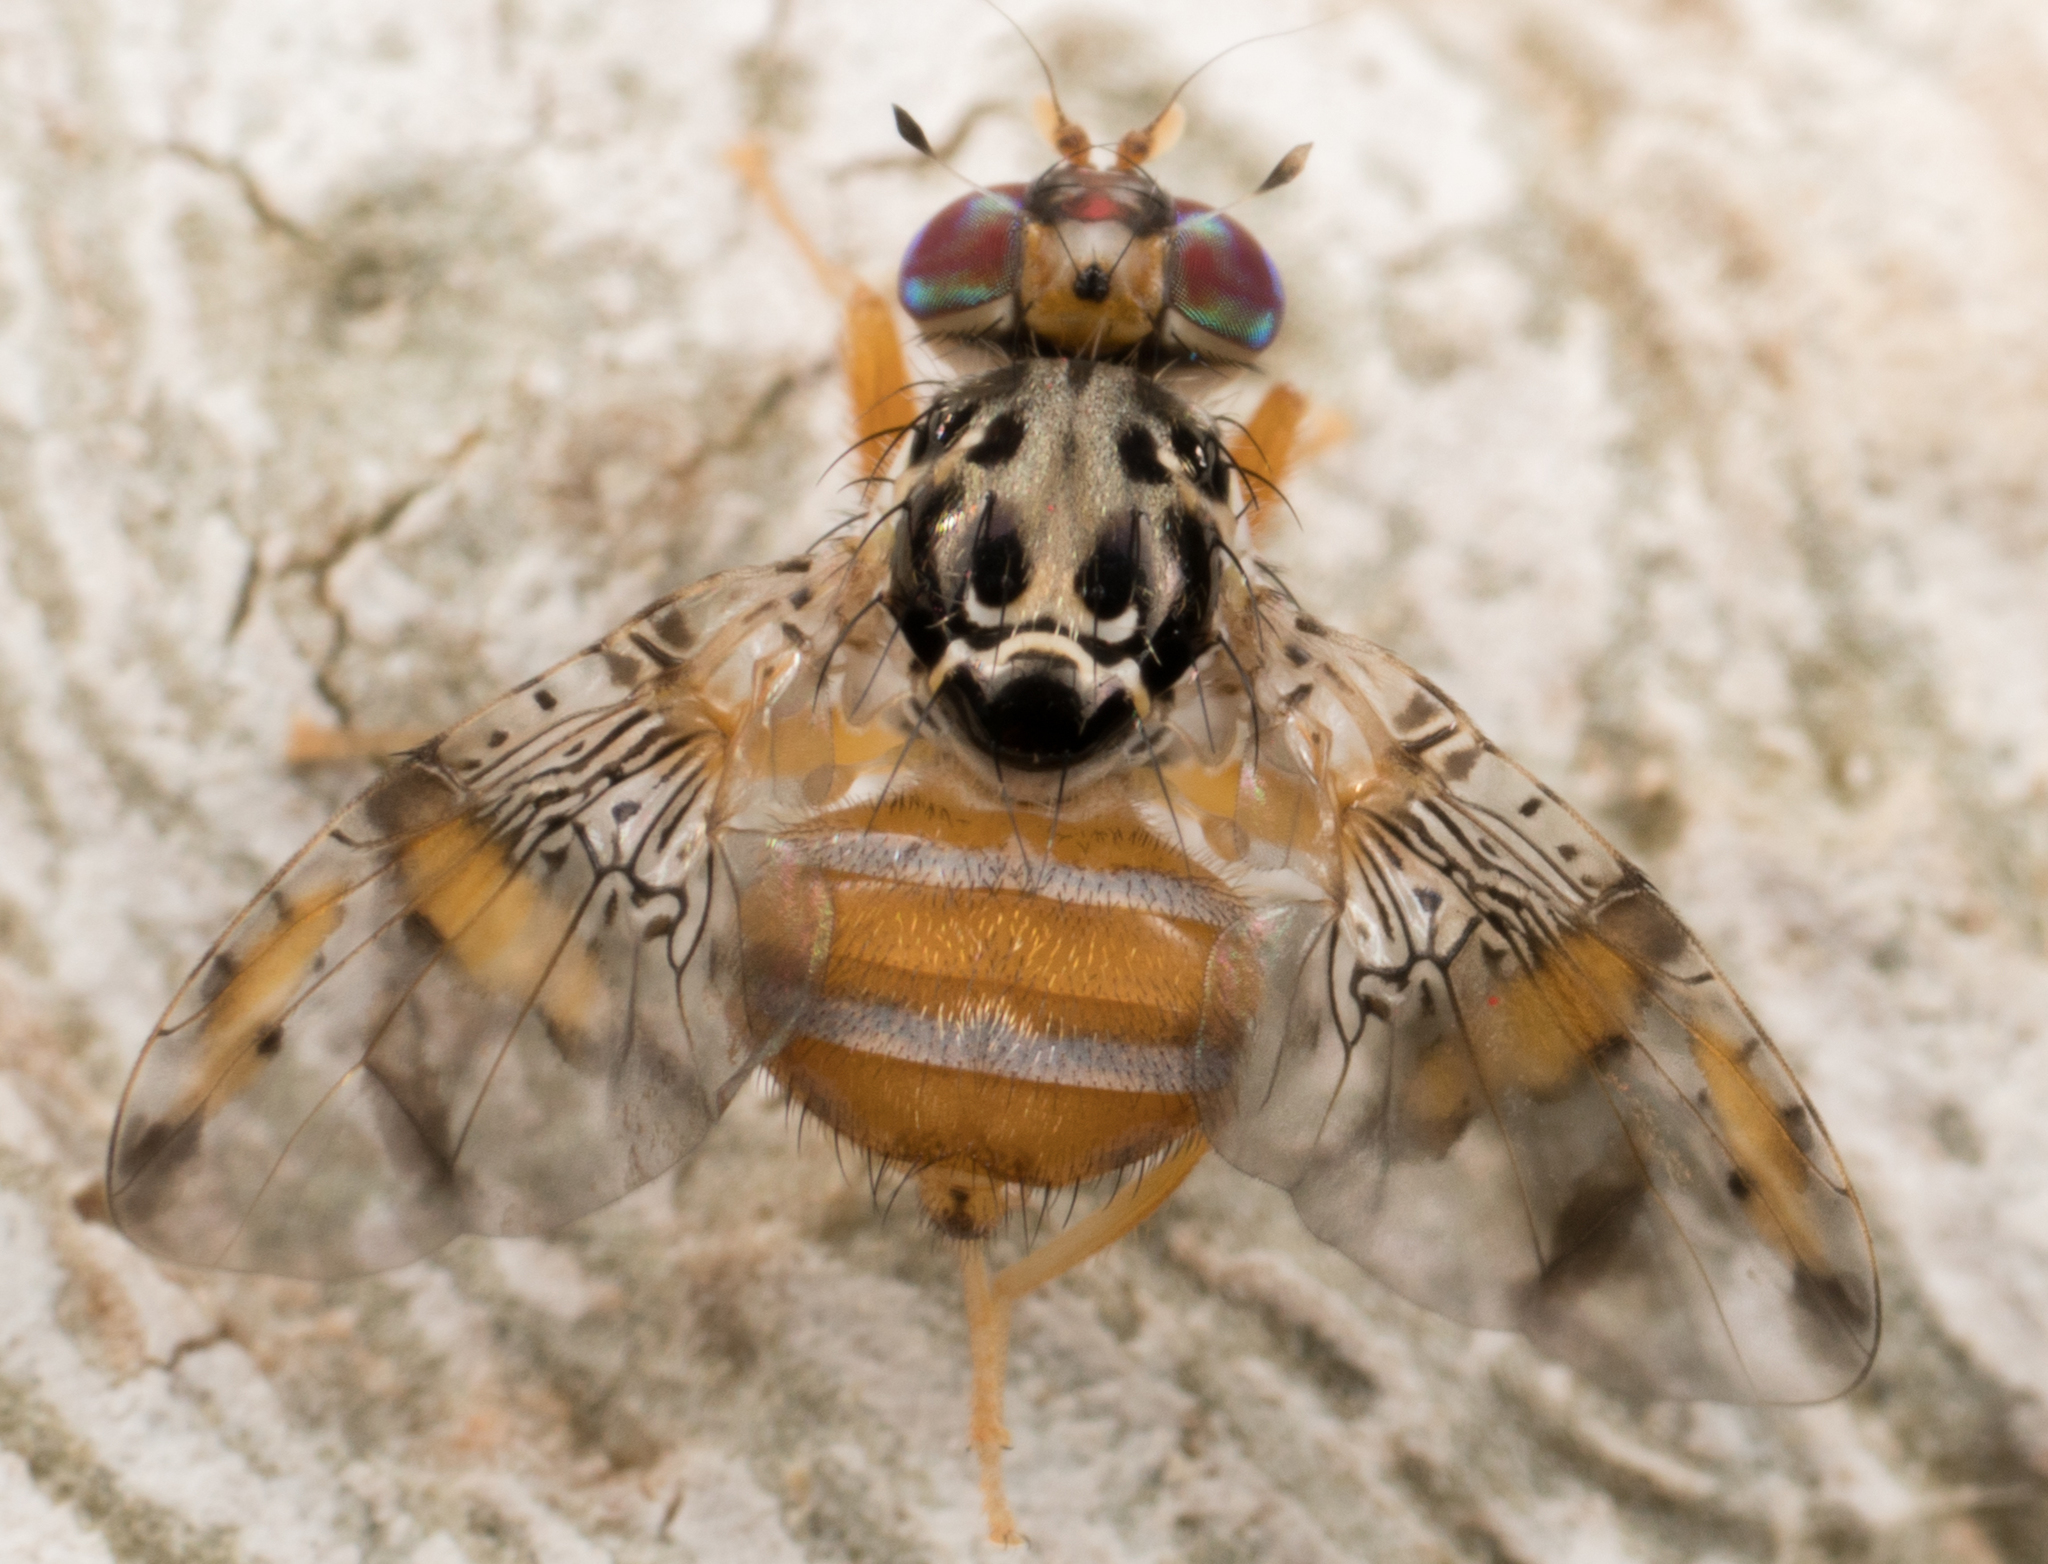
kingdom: Animalia
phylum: Arthropoda
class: Insecta
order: Diptera
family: Tephritidae
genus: Ceratitis
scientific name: Ceratitis capitata
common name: Mediterranean fruit fly
